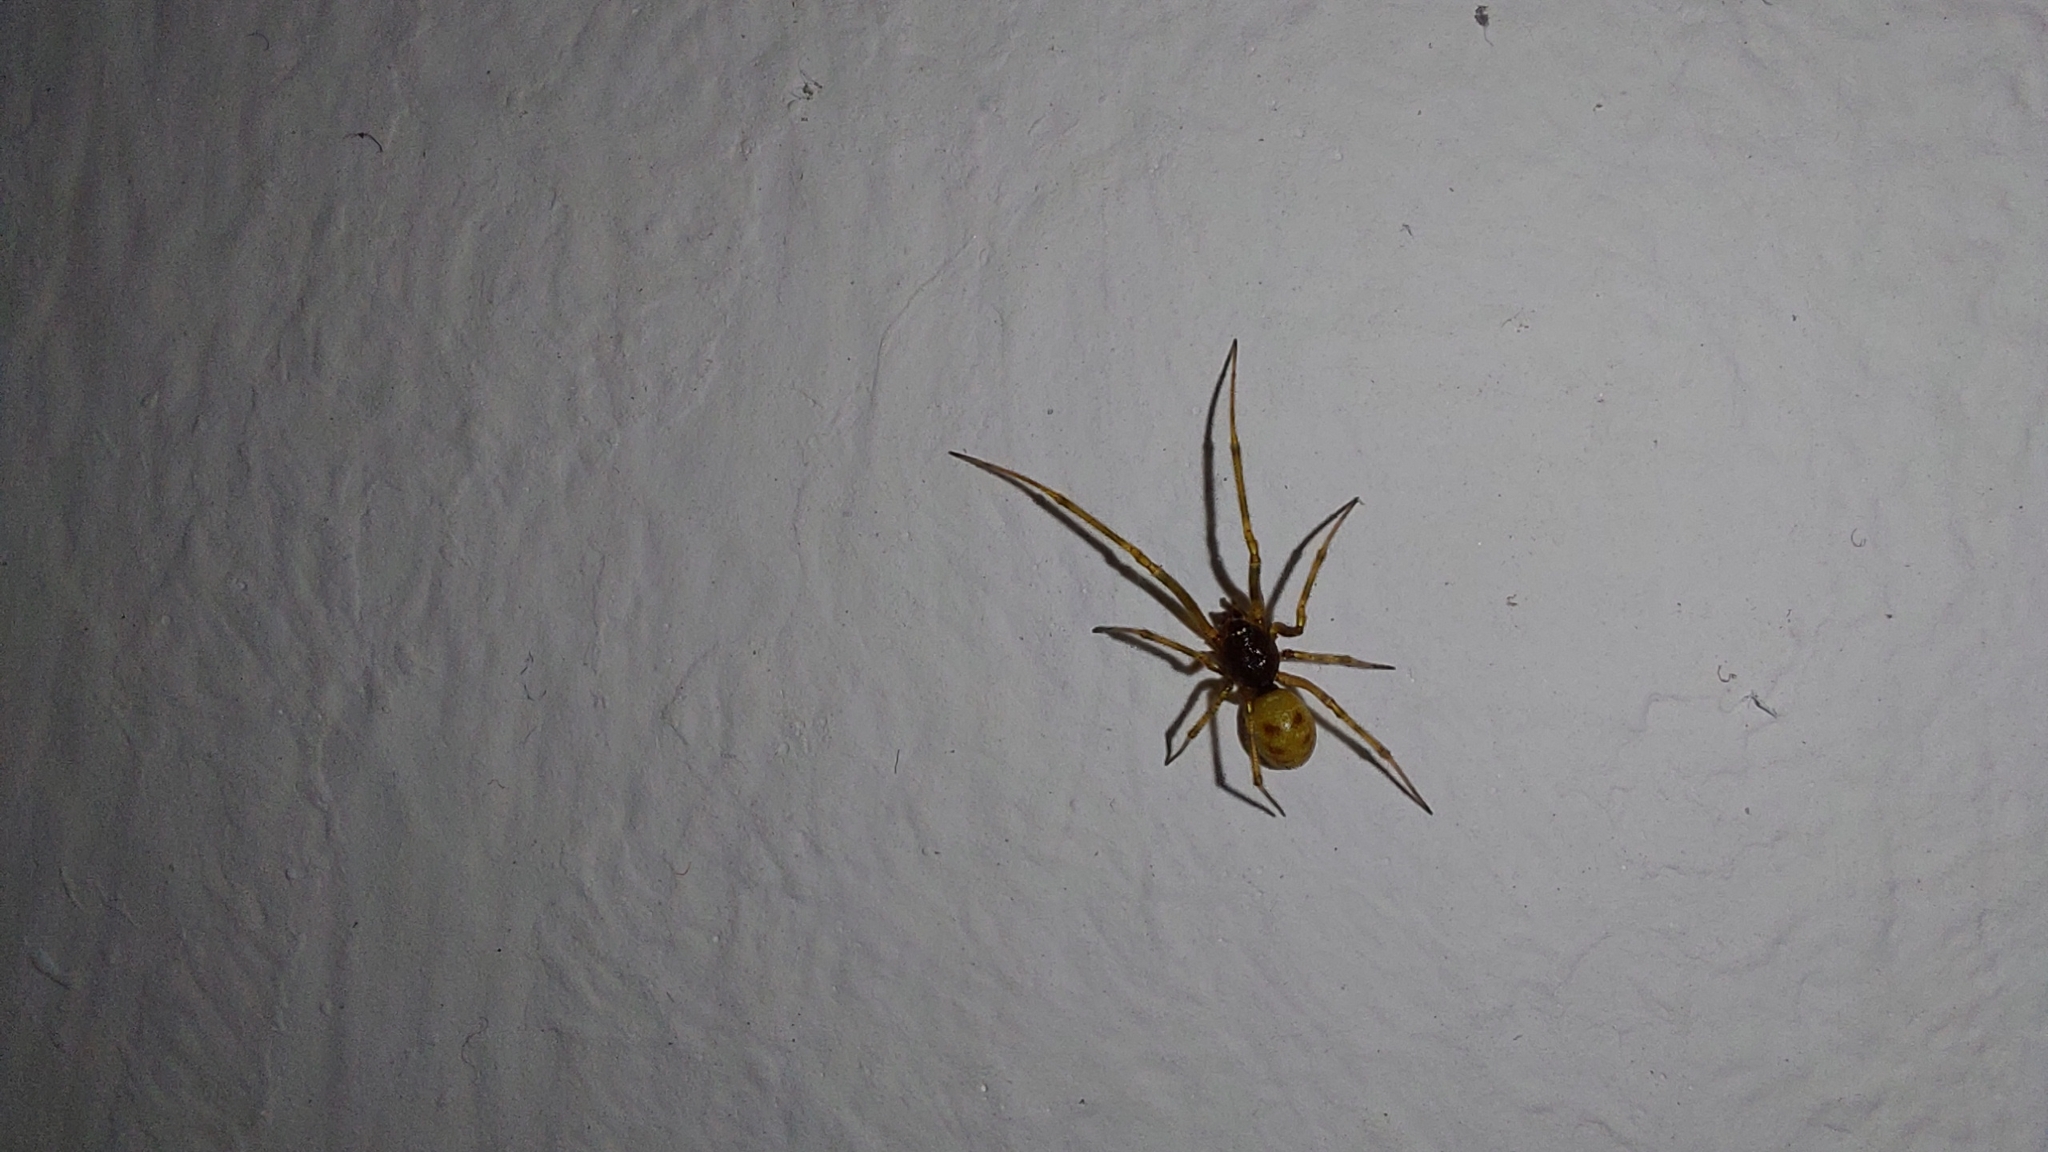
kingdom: Animalia
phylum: Arthropoda
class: Arachnida
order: Araneae
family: Theridiidae
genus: Steatoda
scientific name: Steatoda triangulosa
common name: Triangulate bud spider
